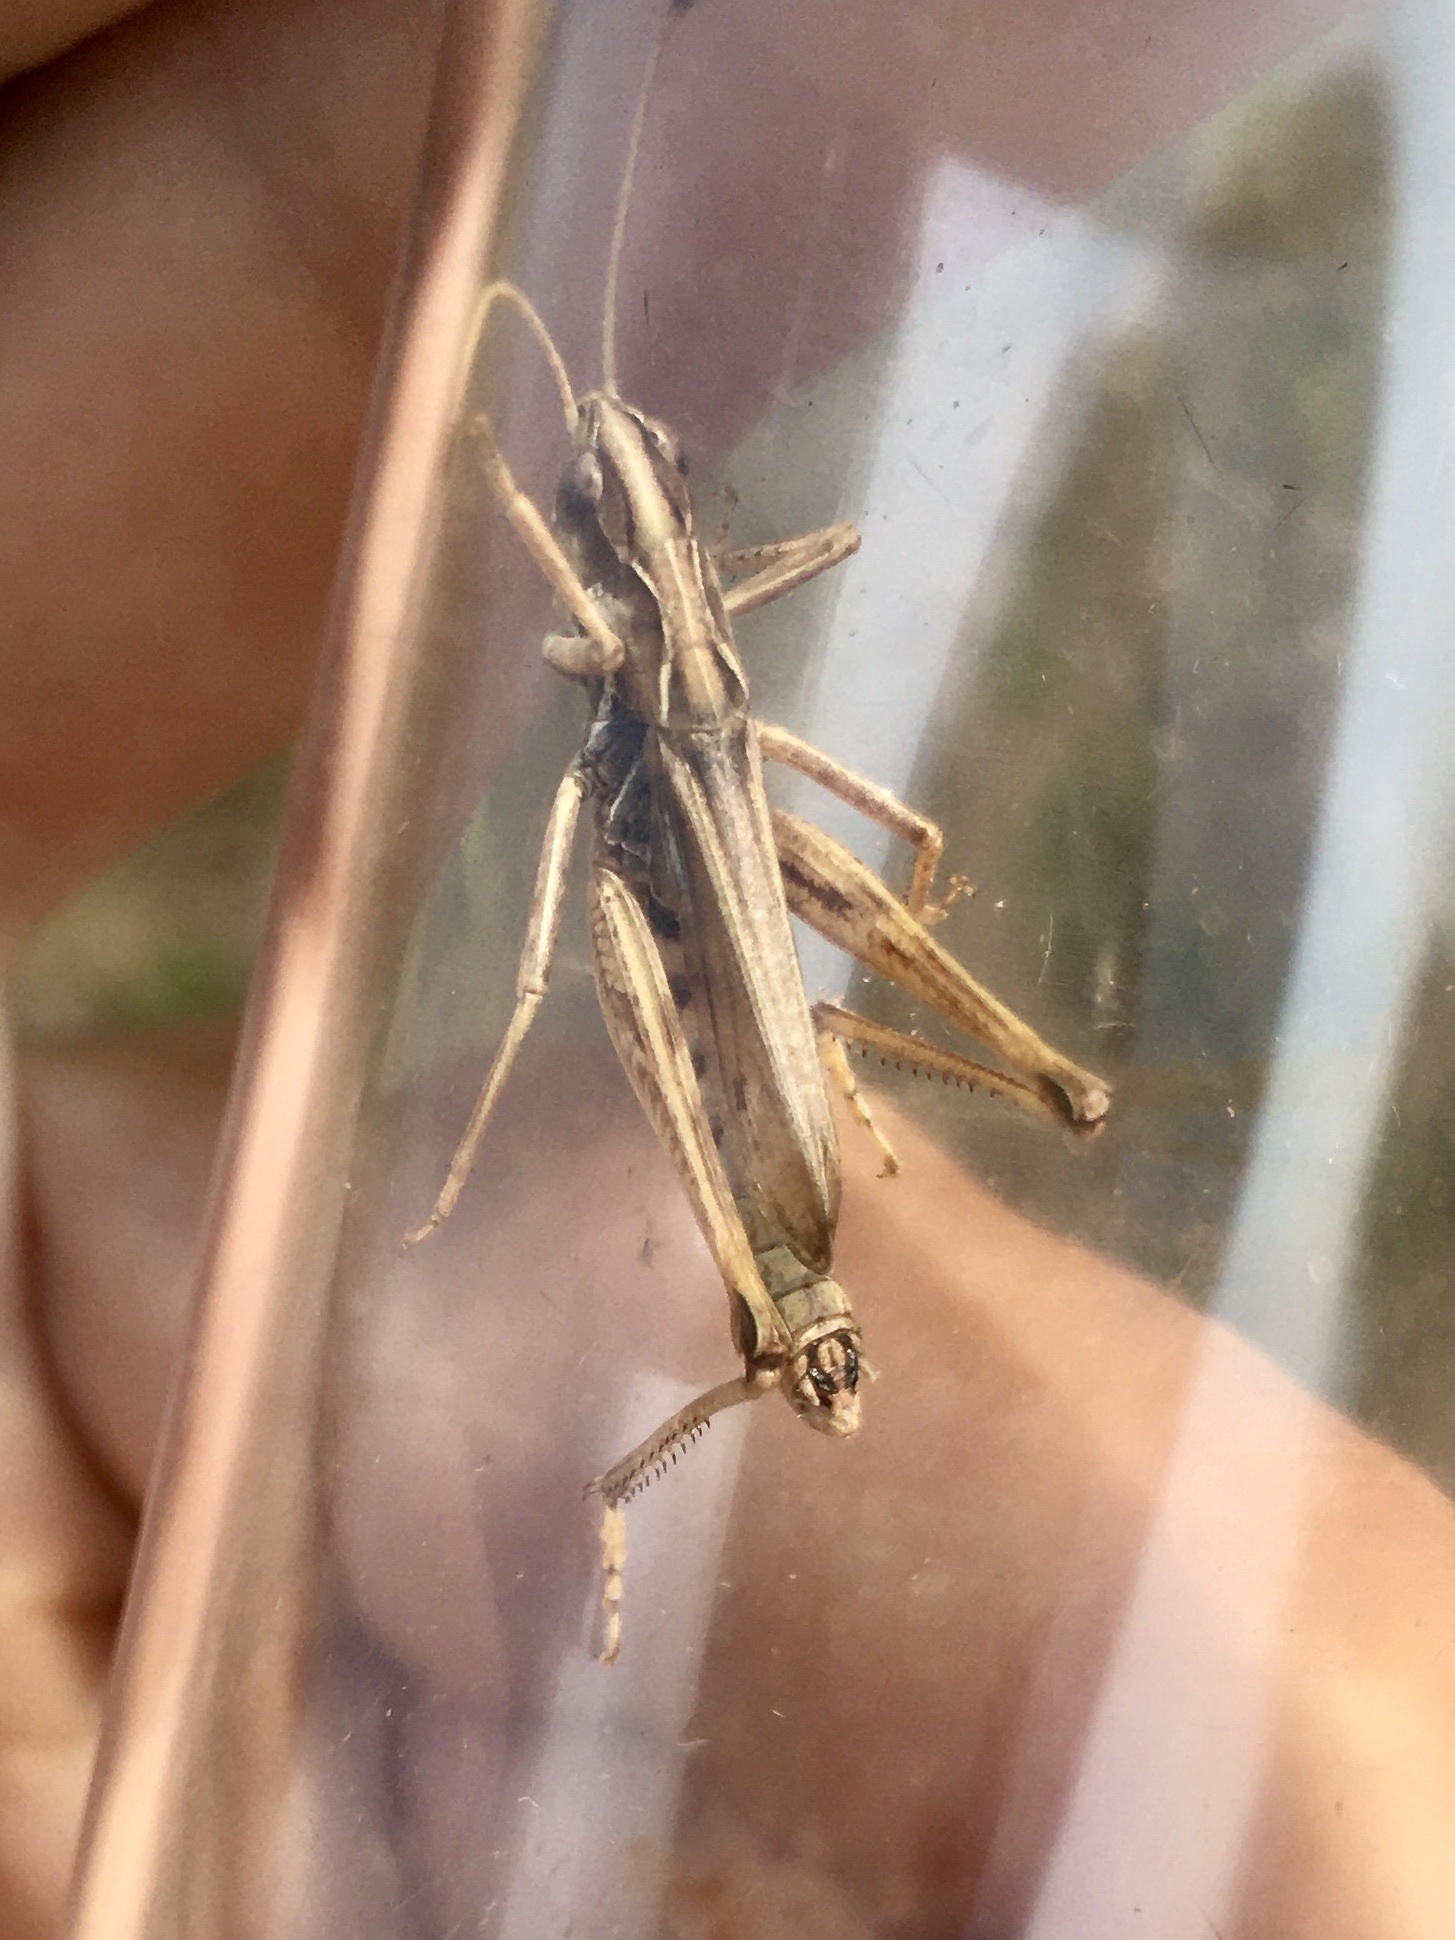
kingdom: Animalia
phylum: Arthropoda
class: Insecta
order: Orthoptera
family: Acrididae
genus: Aeropedellus
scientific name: Aeropedellus clavatus
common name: Clubhorned grasshopper
